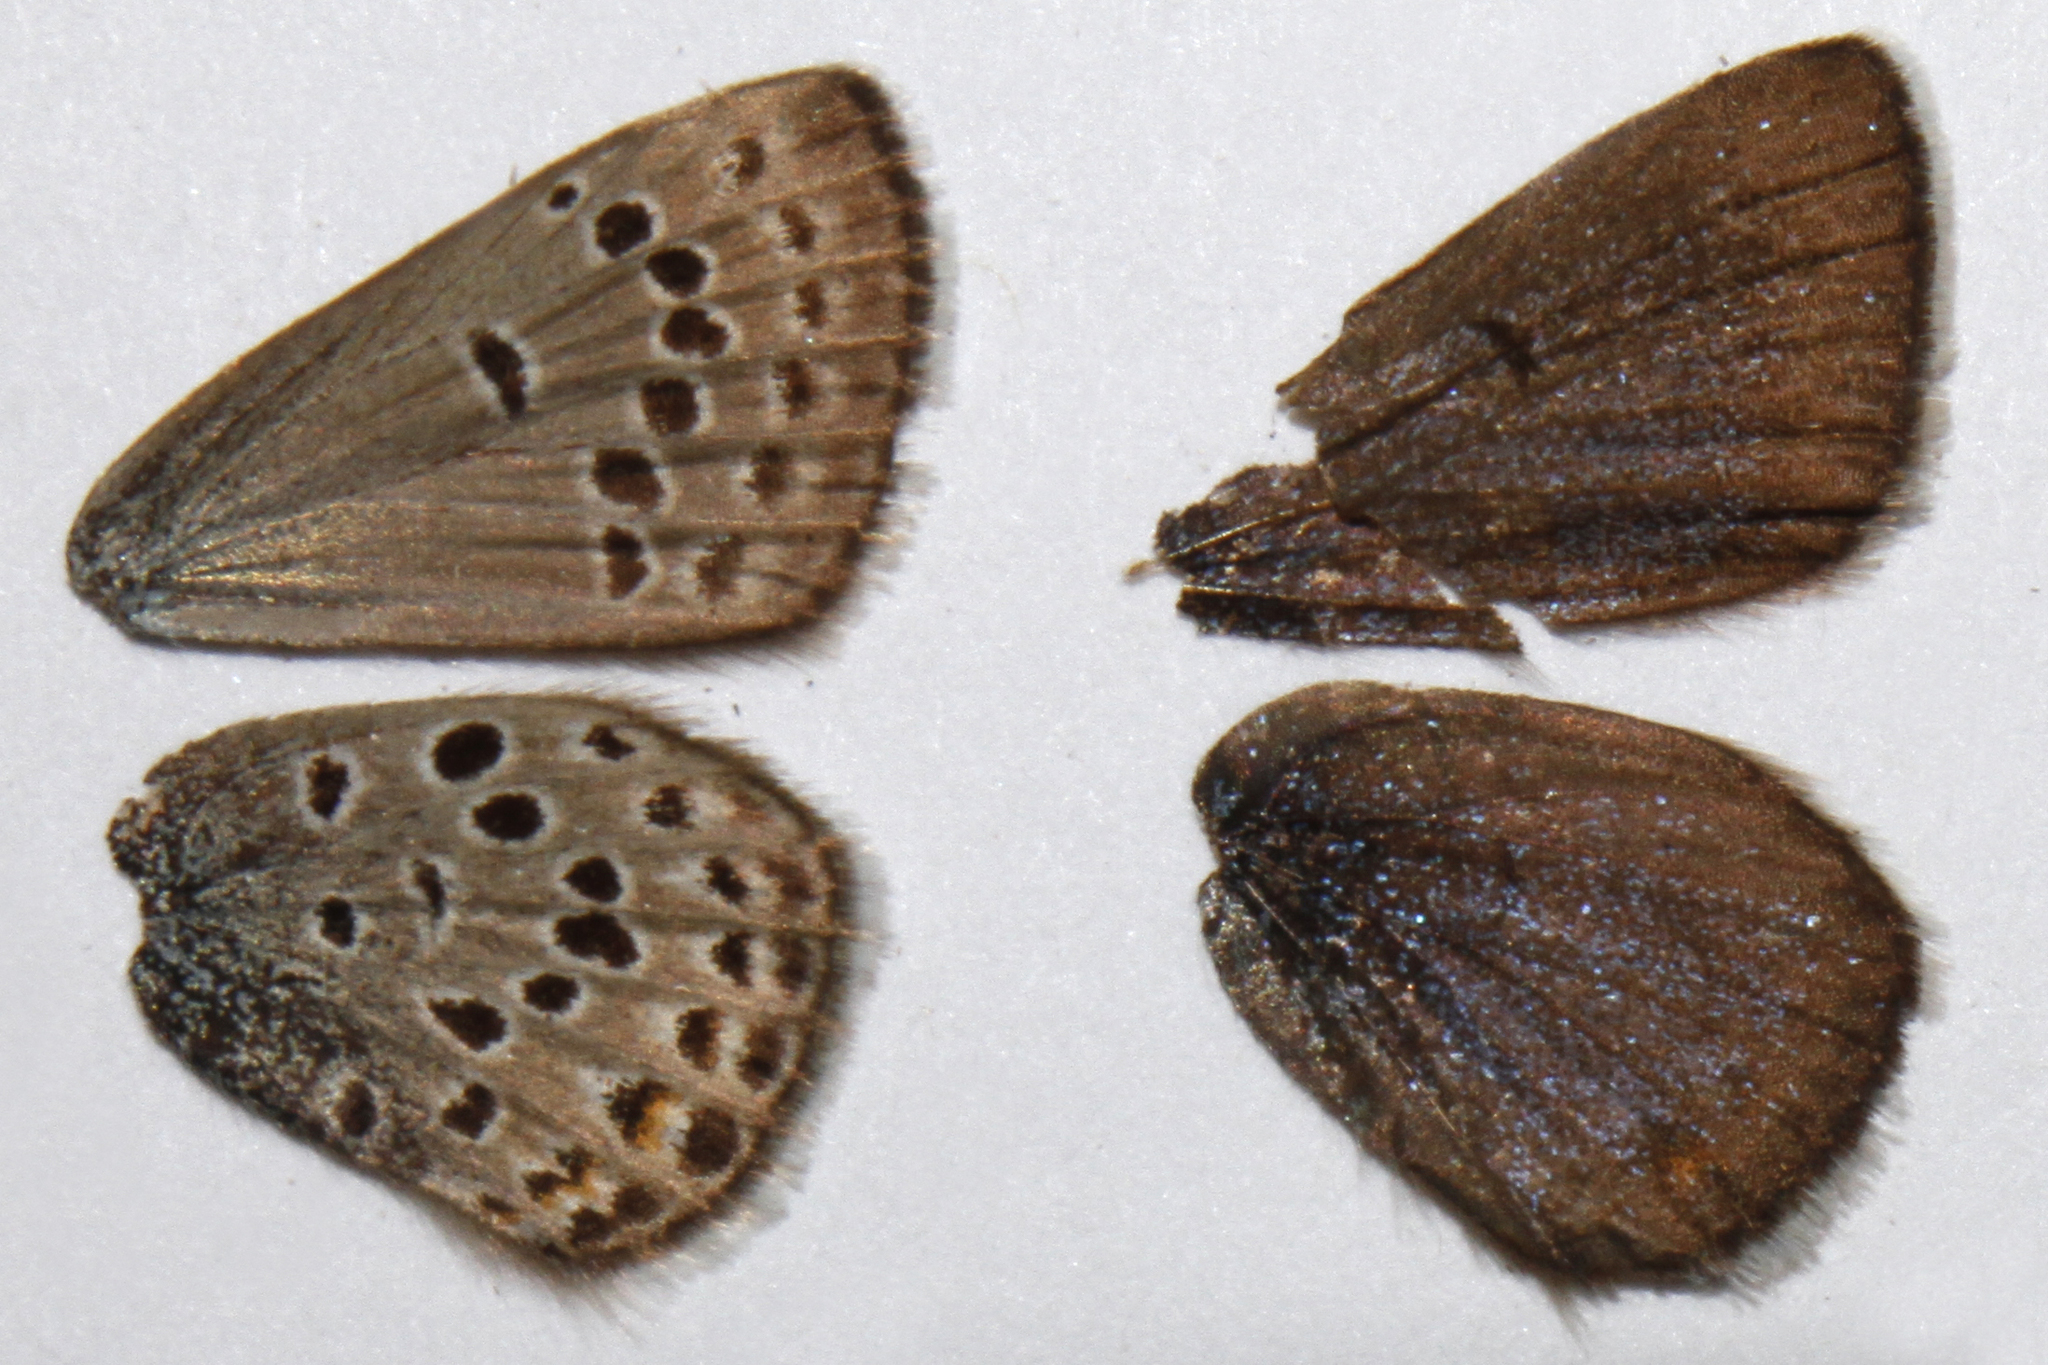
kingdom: Animalia
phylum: Arthropoda
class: Insecta
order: Lepidoptera
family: Lycaenidae
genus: Icaricia
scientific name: Icaricia saepiolus
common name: Greenish blue
